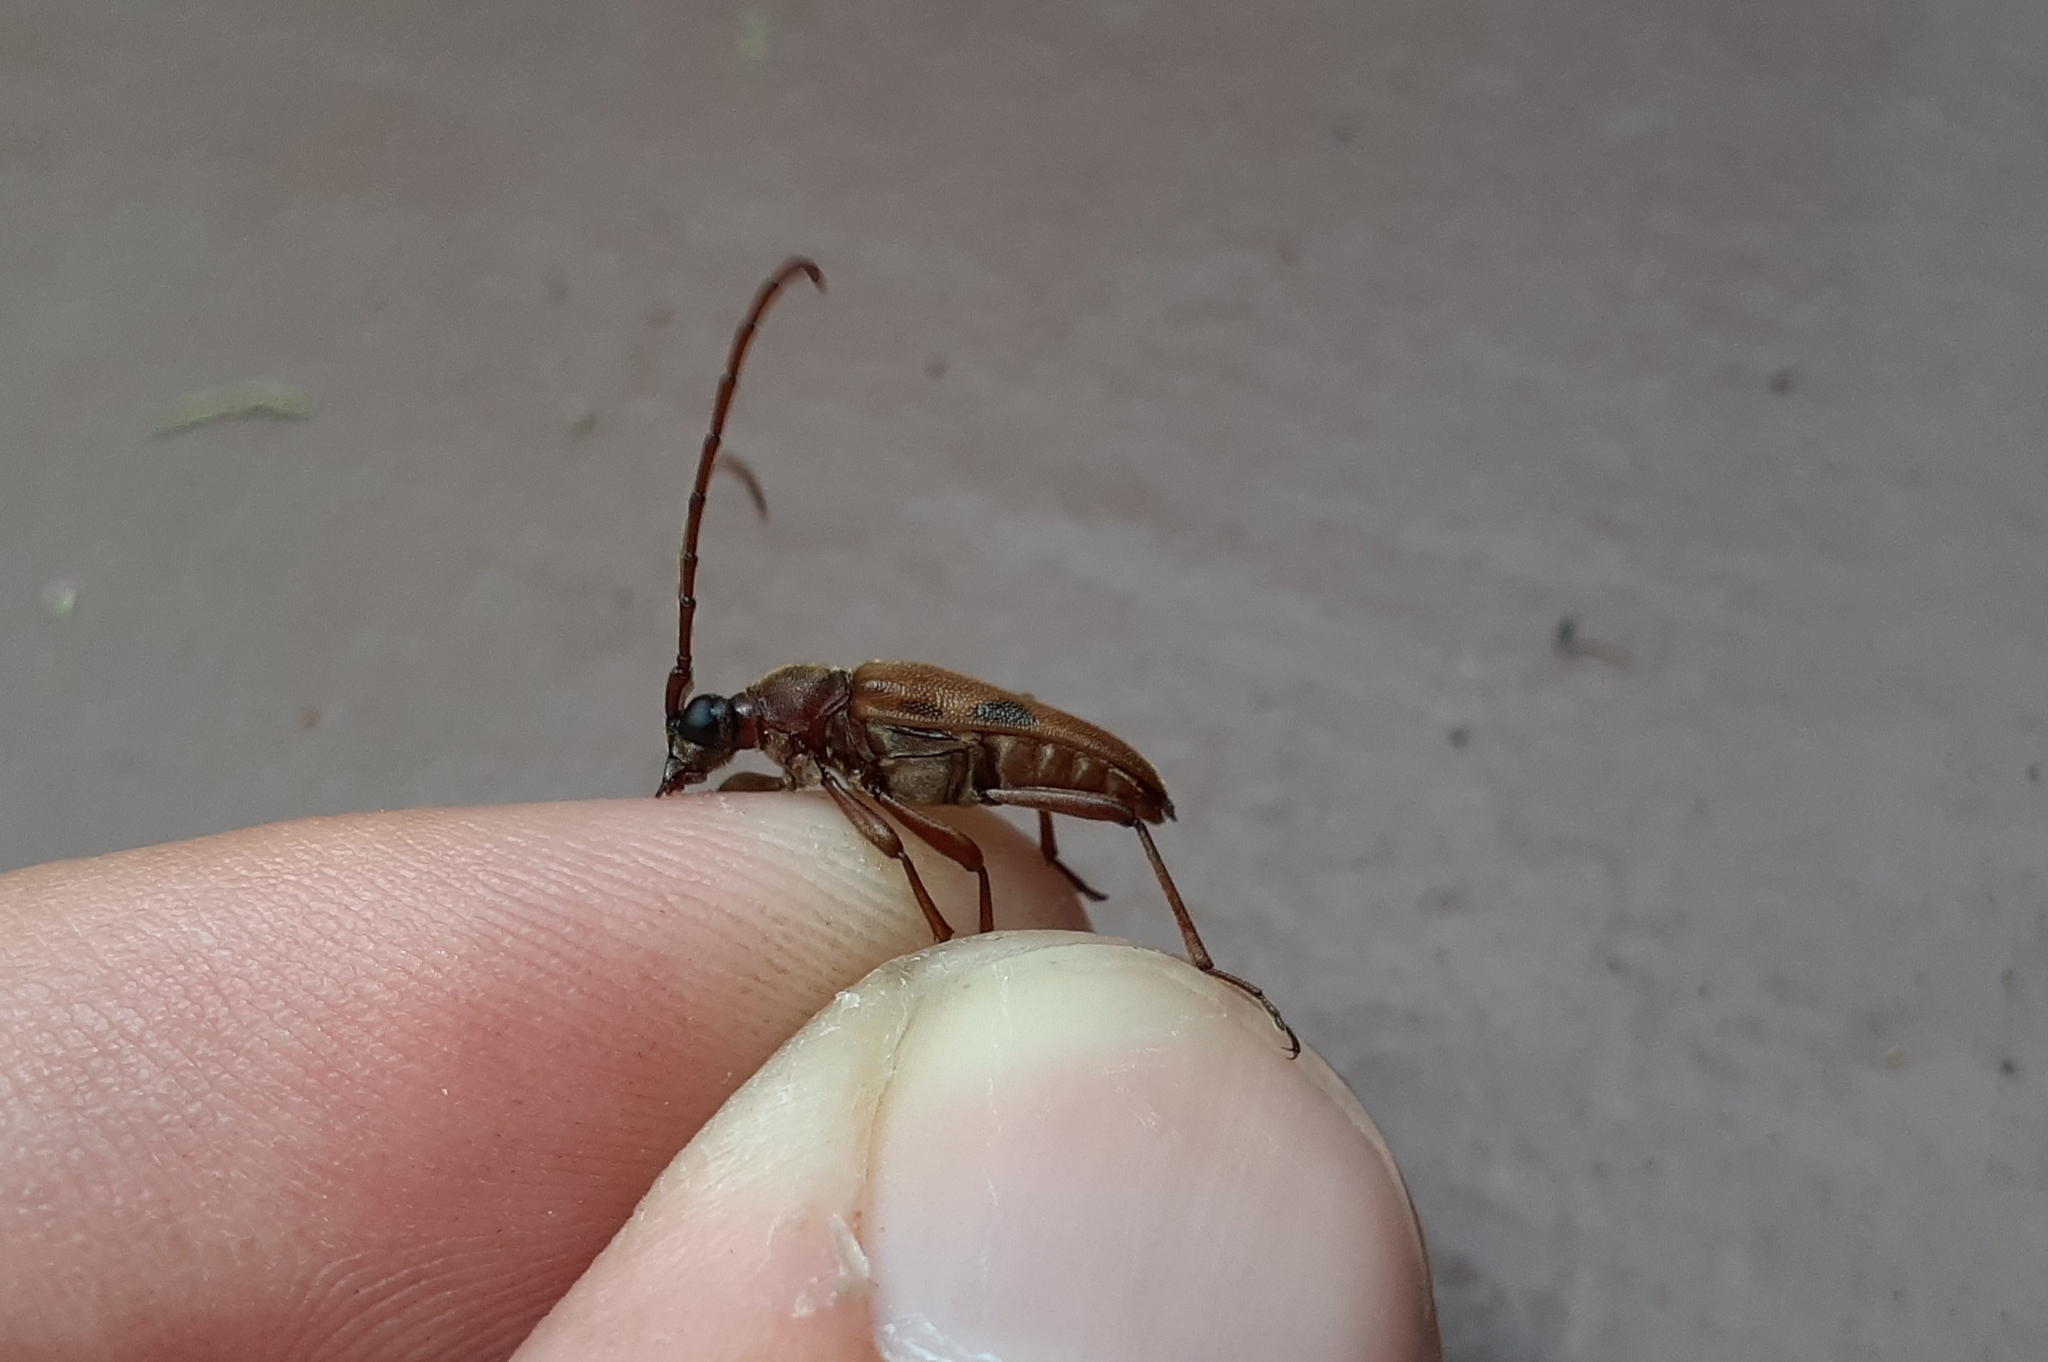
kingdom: Animalia
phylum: Arthropoda
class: Insecta
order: Coleoptera
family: Cerambycidae
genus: Lepturopsis
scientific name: Lepturopsis biforis
